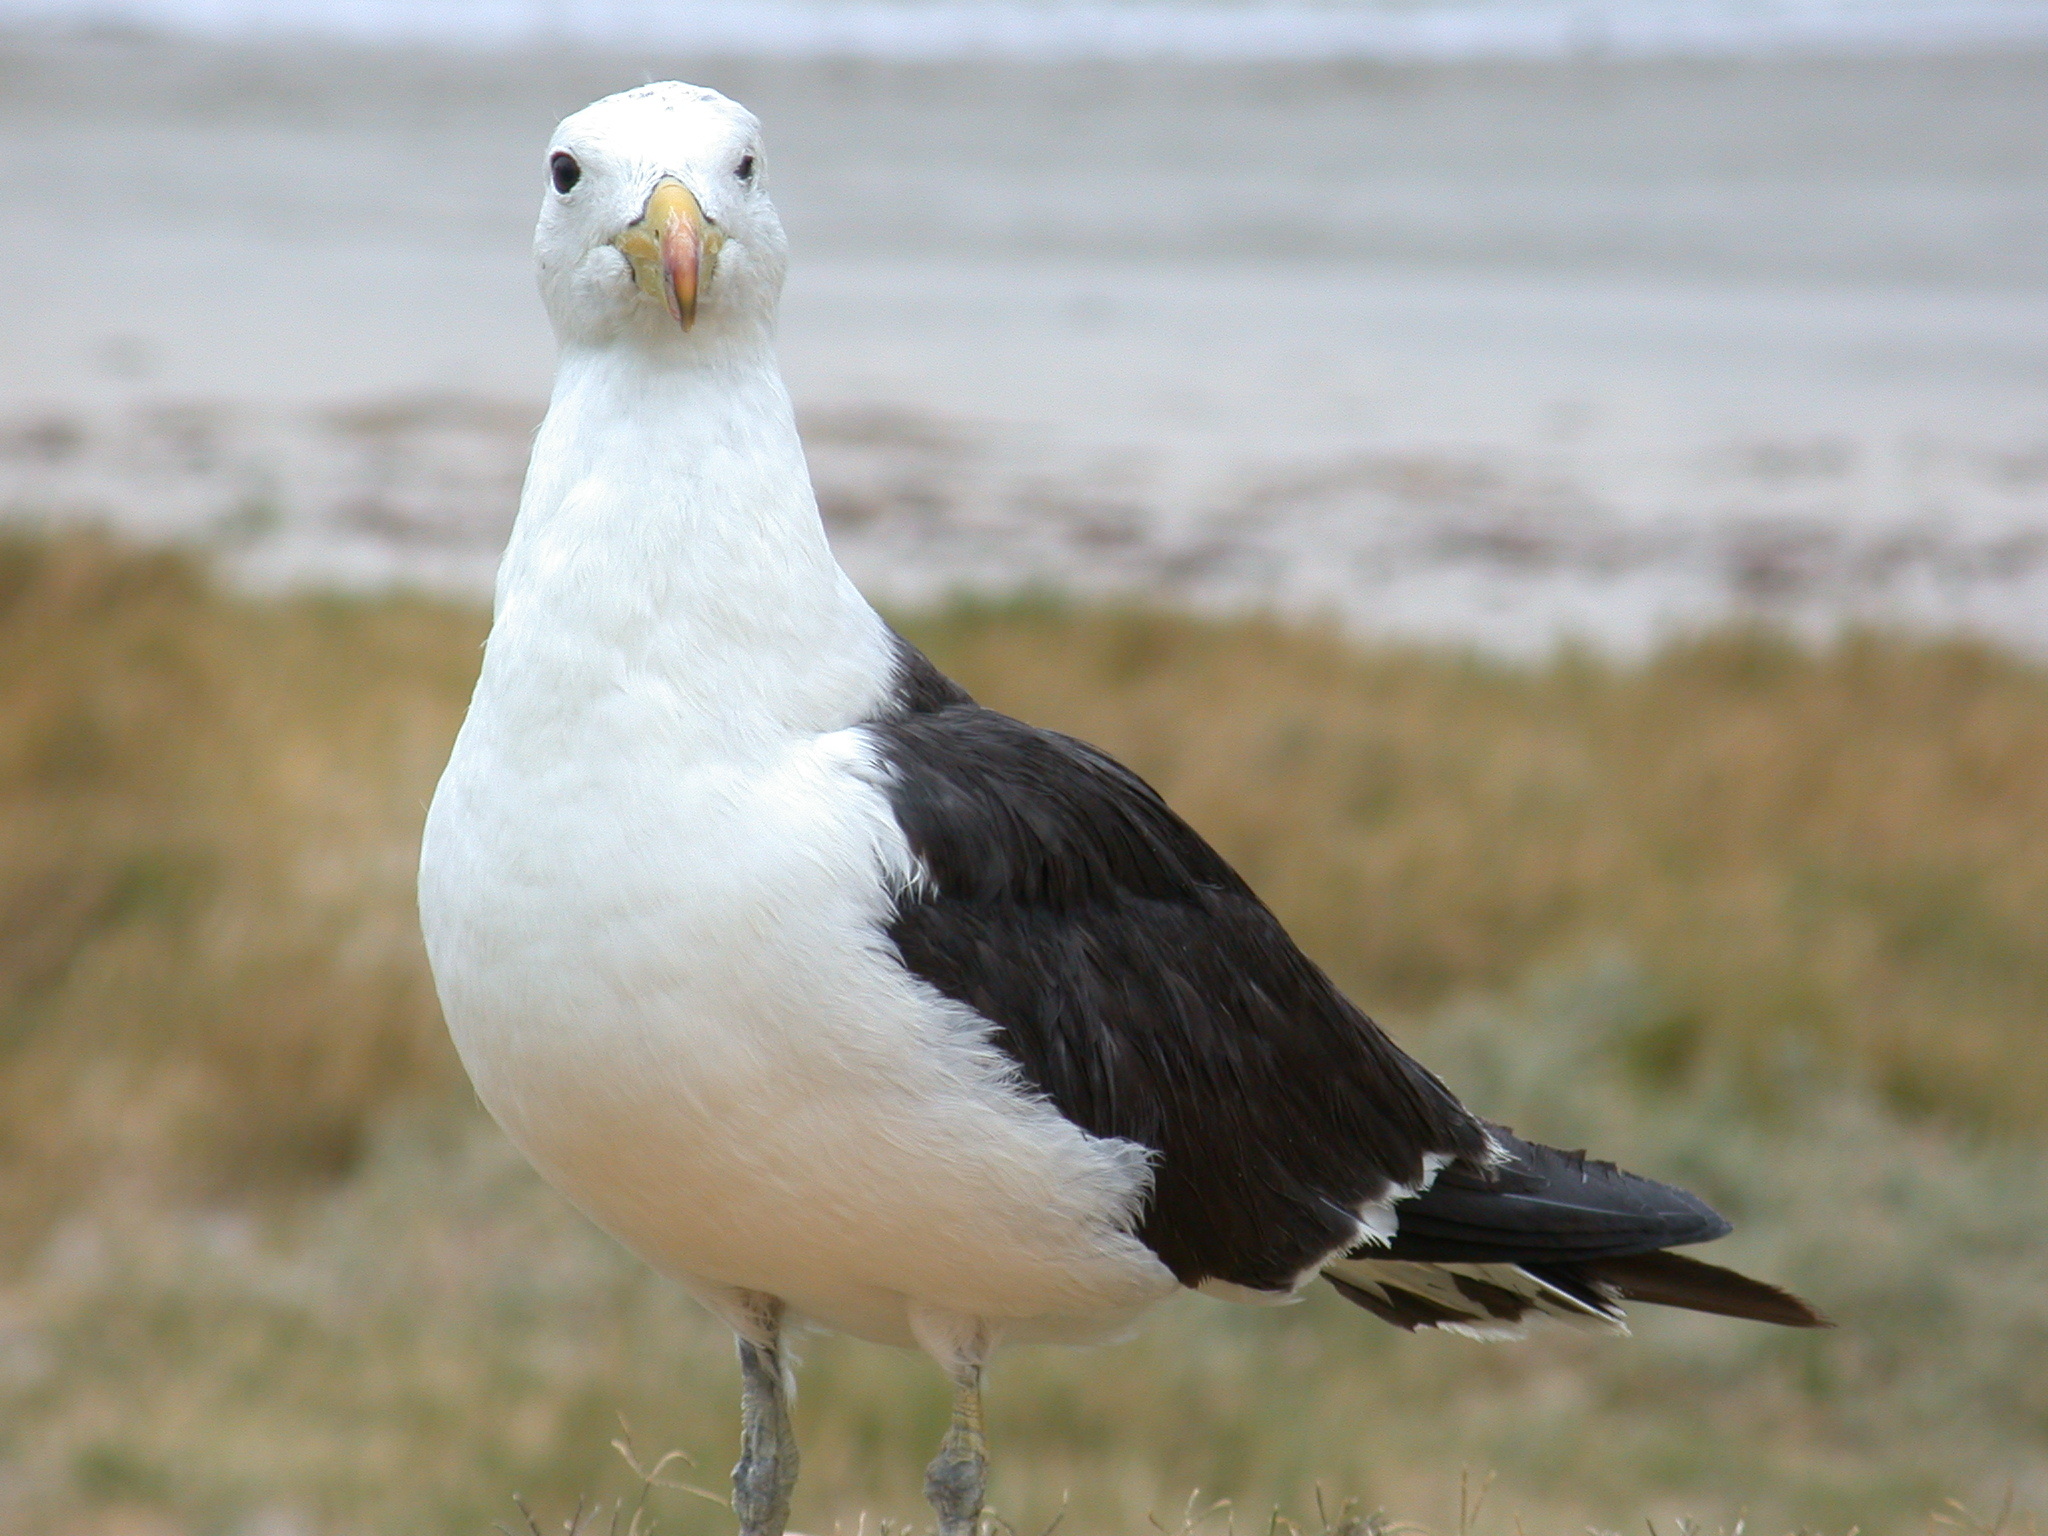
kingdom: Animalia
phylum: Chordata
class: Aves
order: Charadriiformes
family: Laridae
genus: Larus
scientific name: Larus pacificus
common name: Pacific gull
